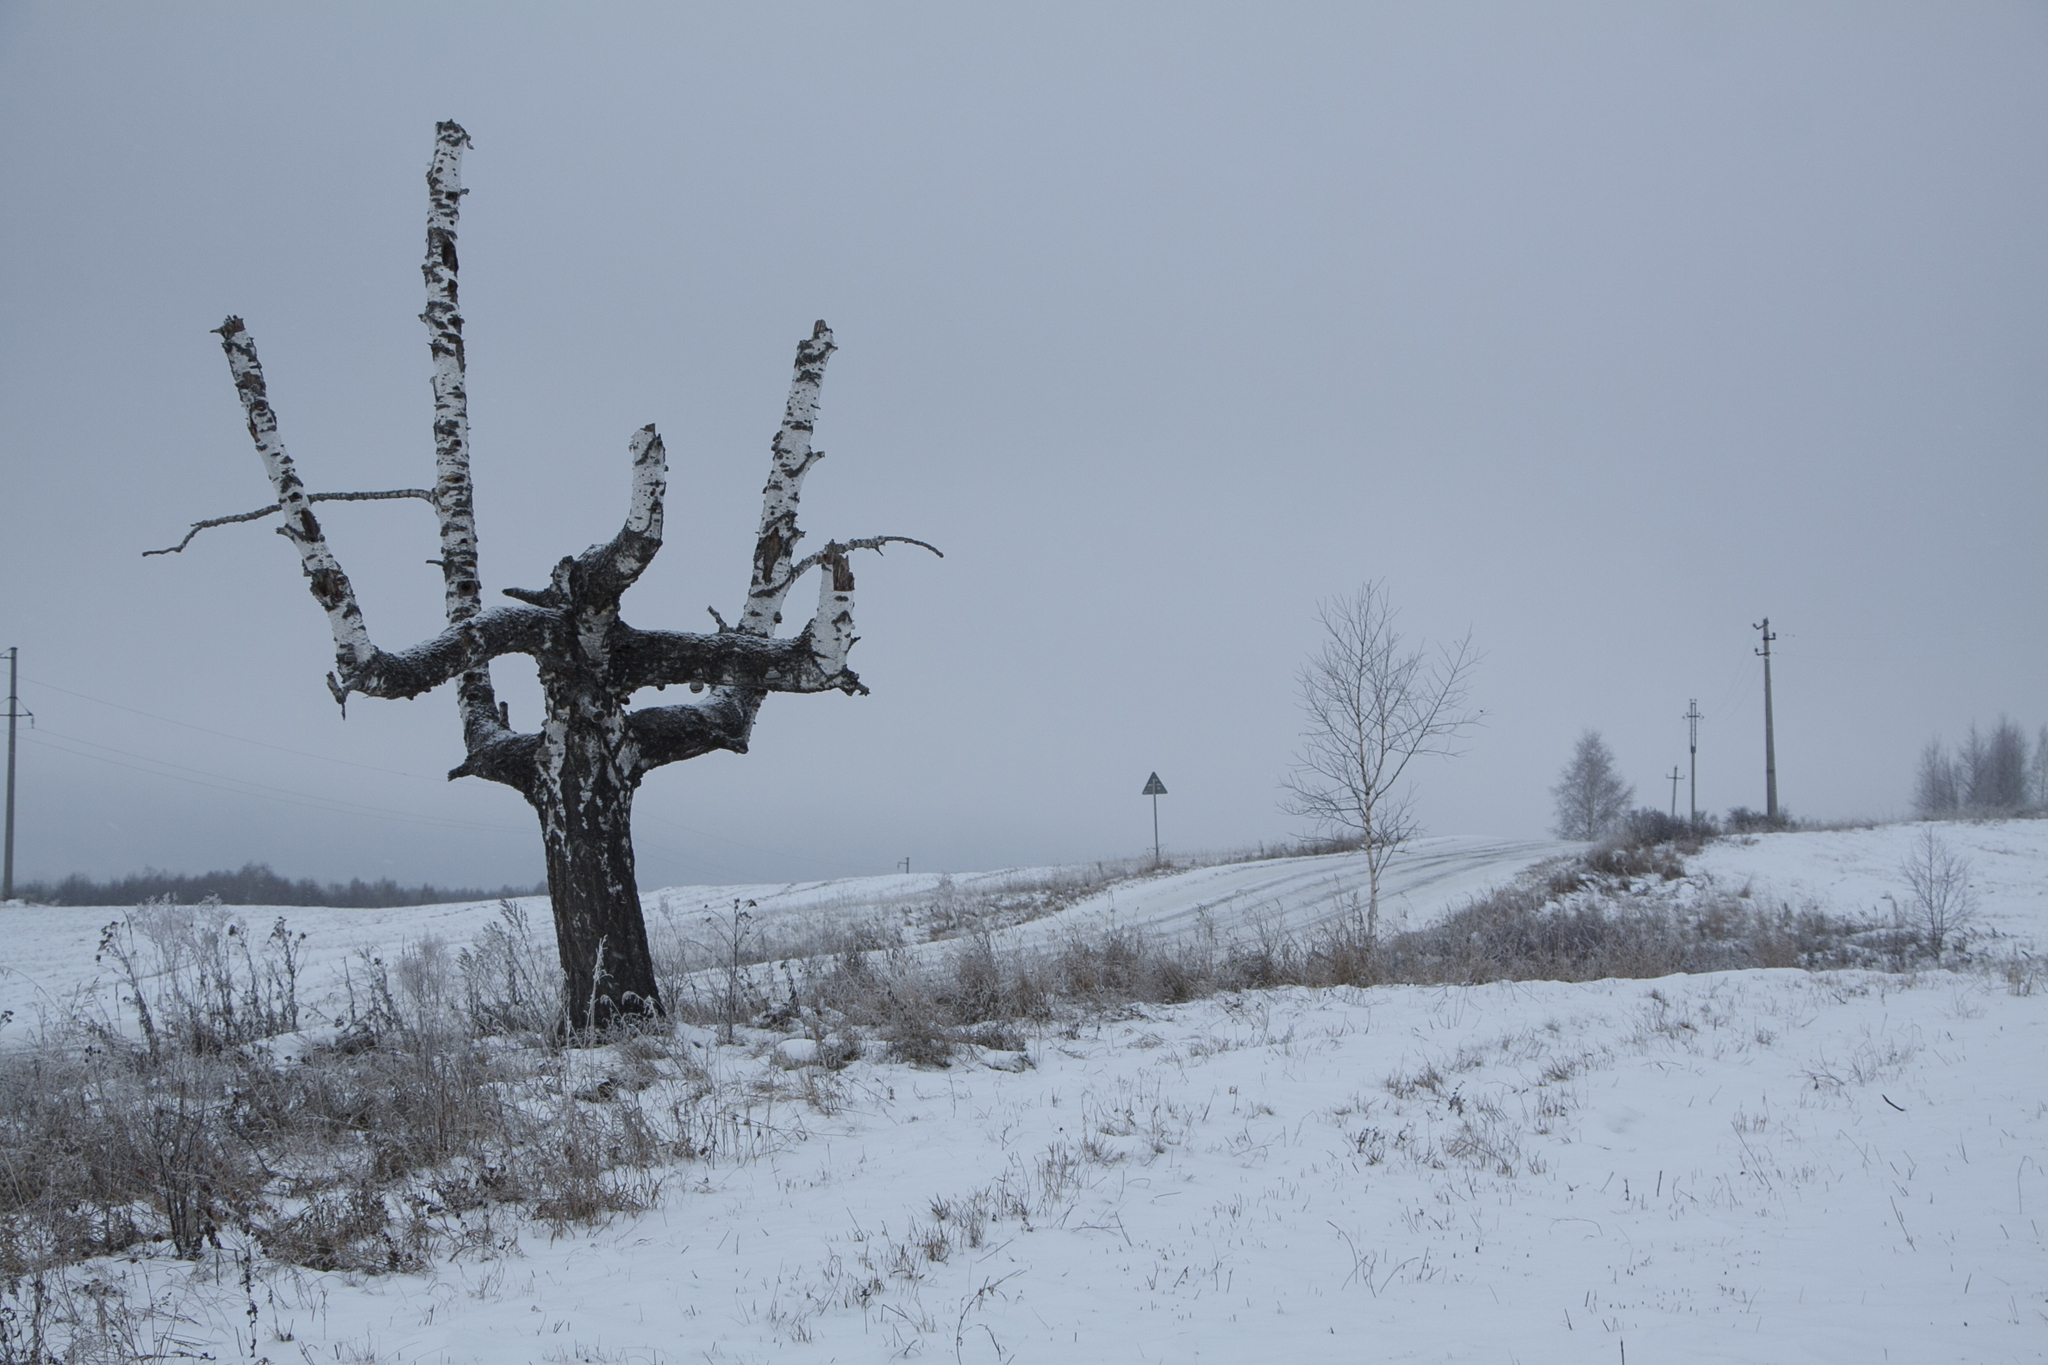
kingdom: Plantae
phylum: Tracheophyta
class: Magnoliopsida
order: Fagales
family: Betulaceae
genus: Betula
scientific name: Betula pendula
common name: Silver birch
